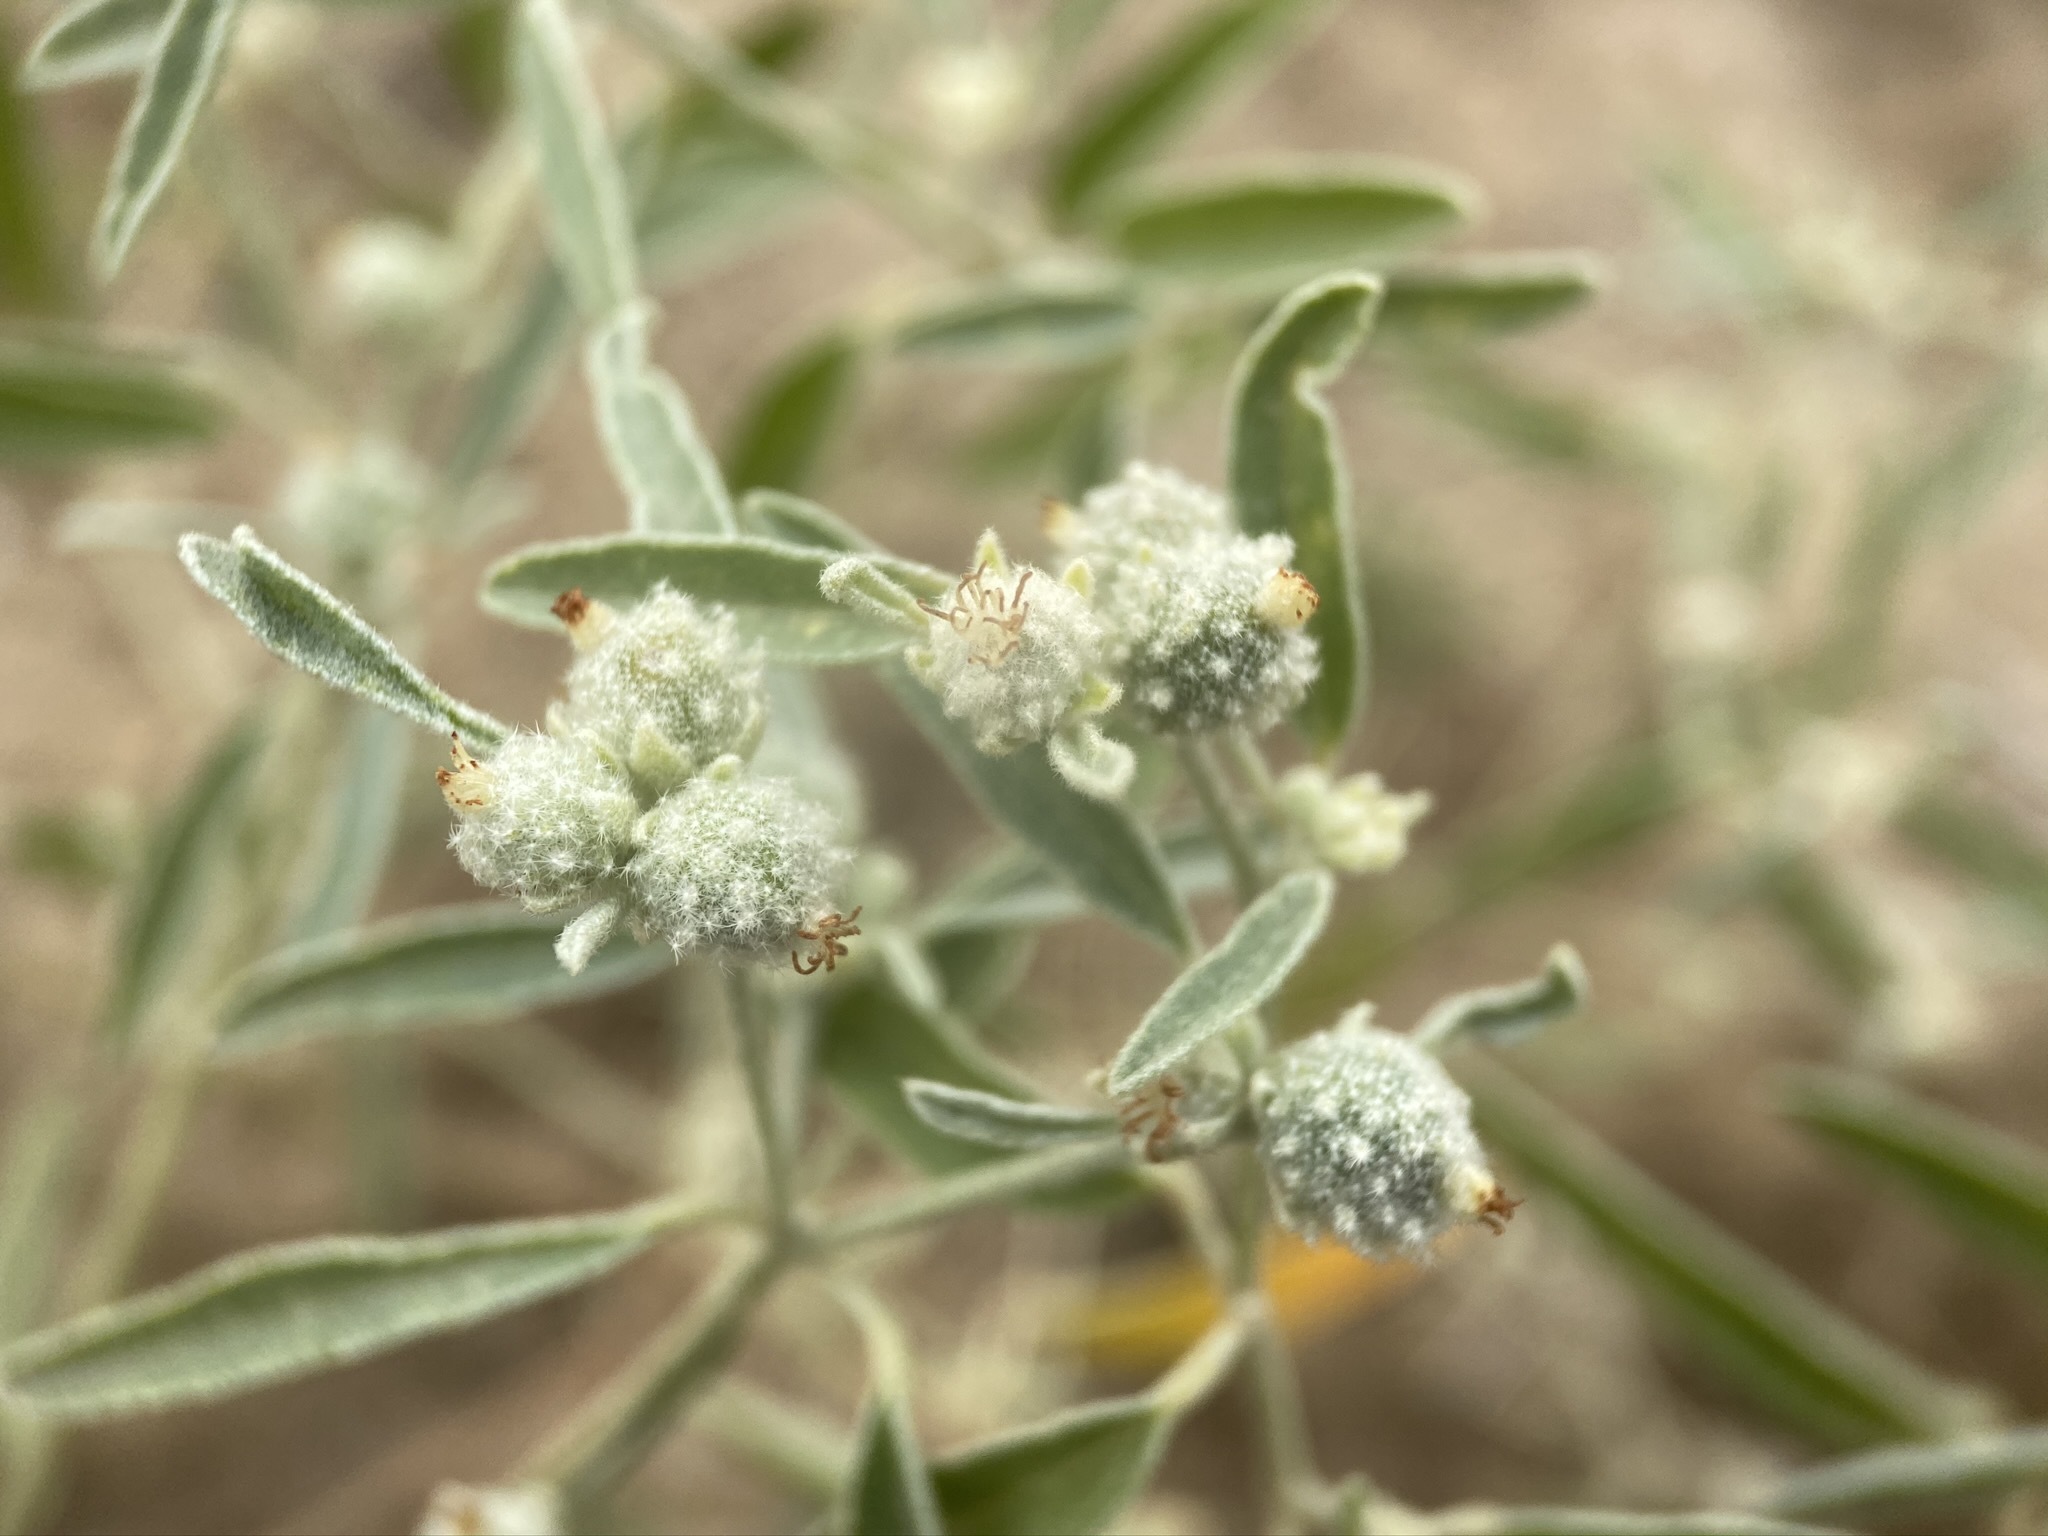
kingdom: Plantae
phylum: Tracheophyta
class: Magnoliopsida
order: Malpighiales
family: Euphorbiaceae
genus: Croton
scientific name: Croton texensis
